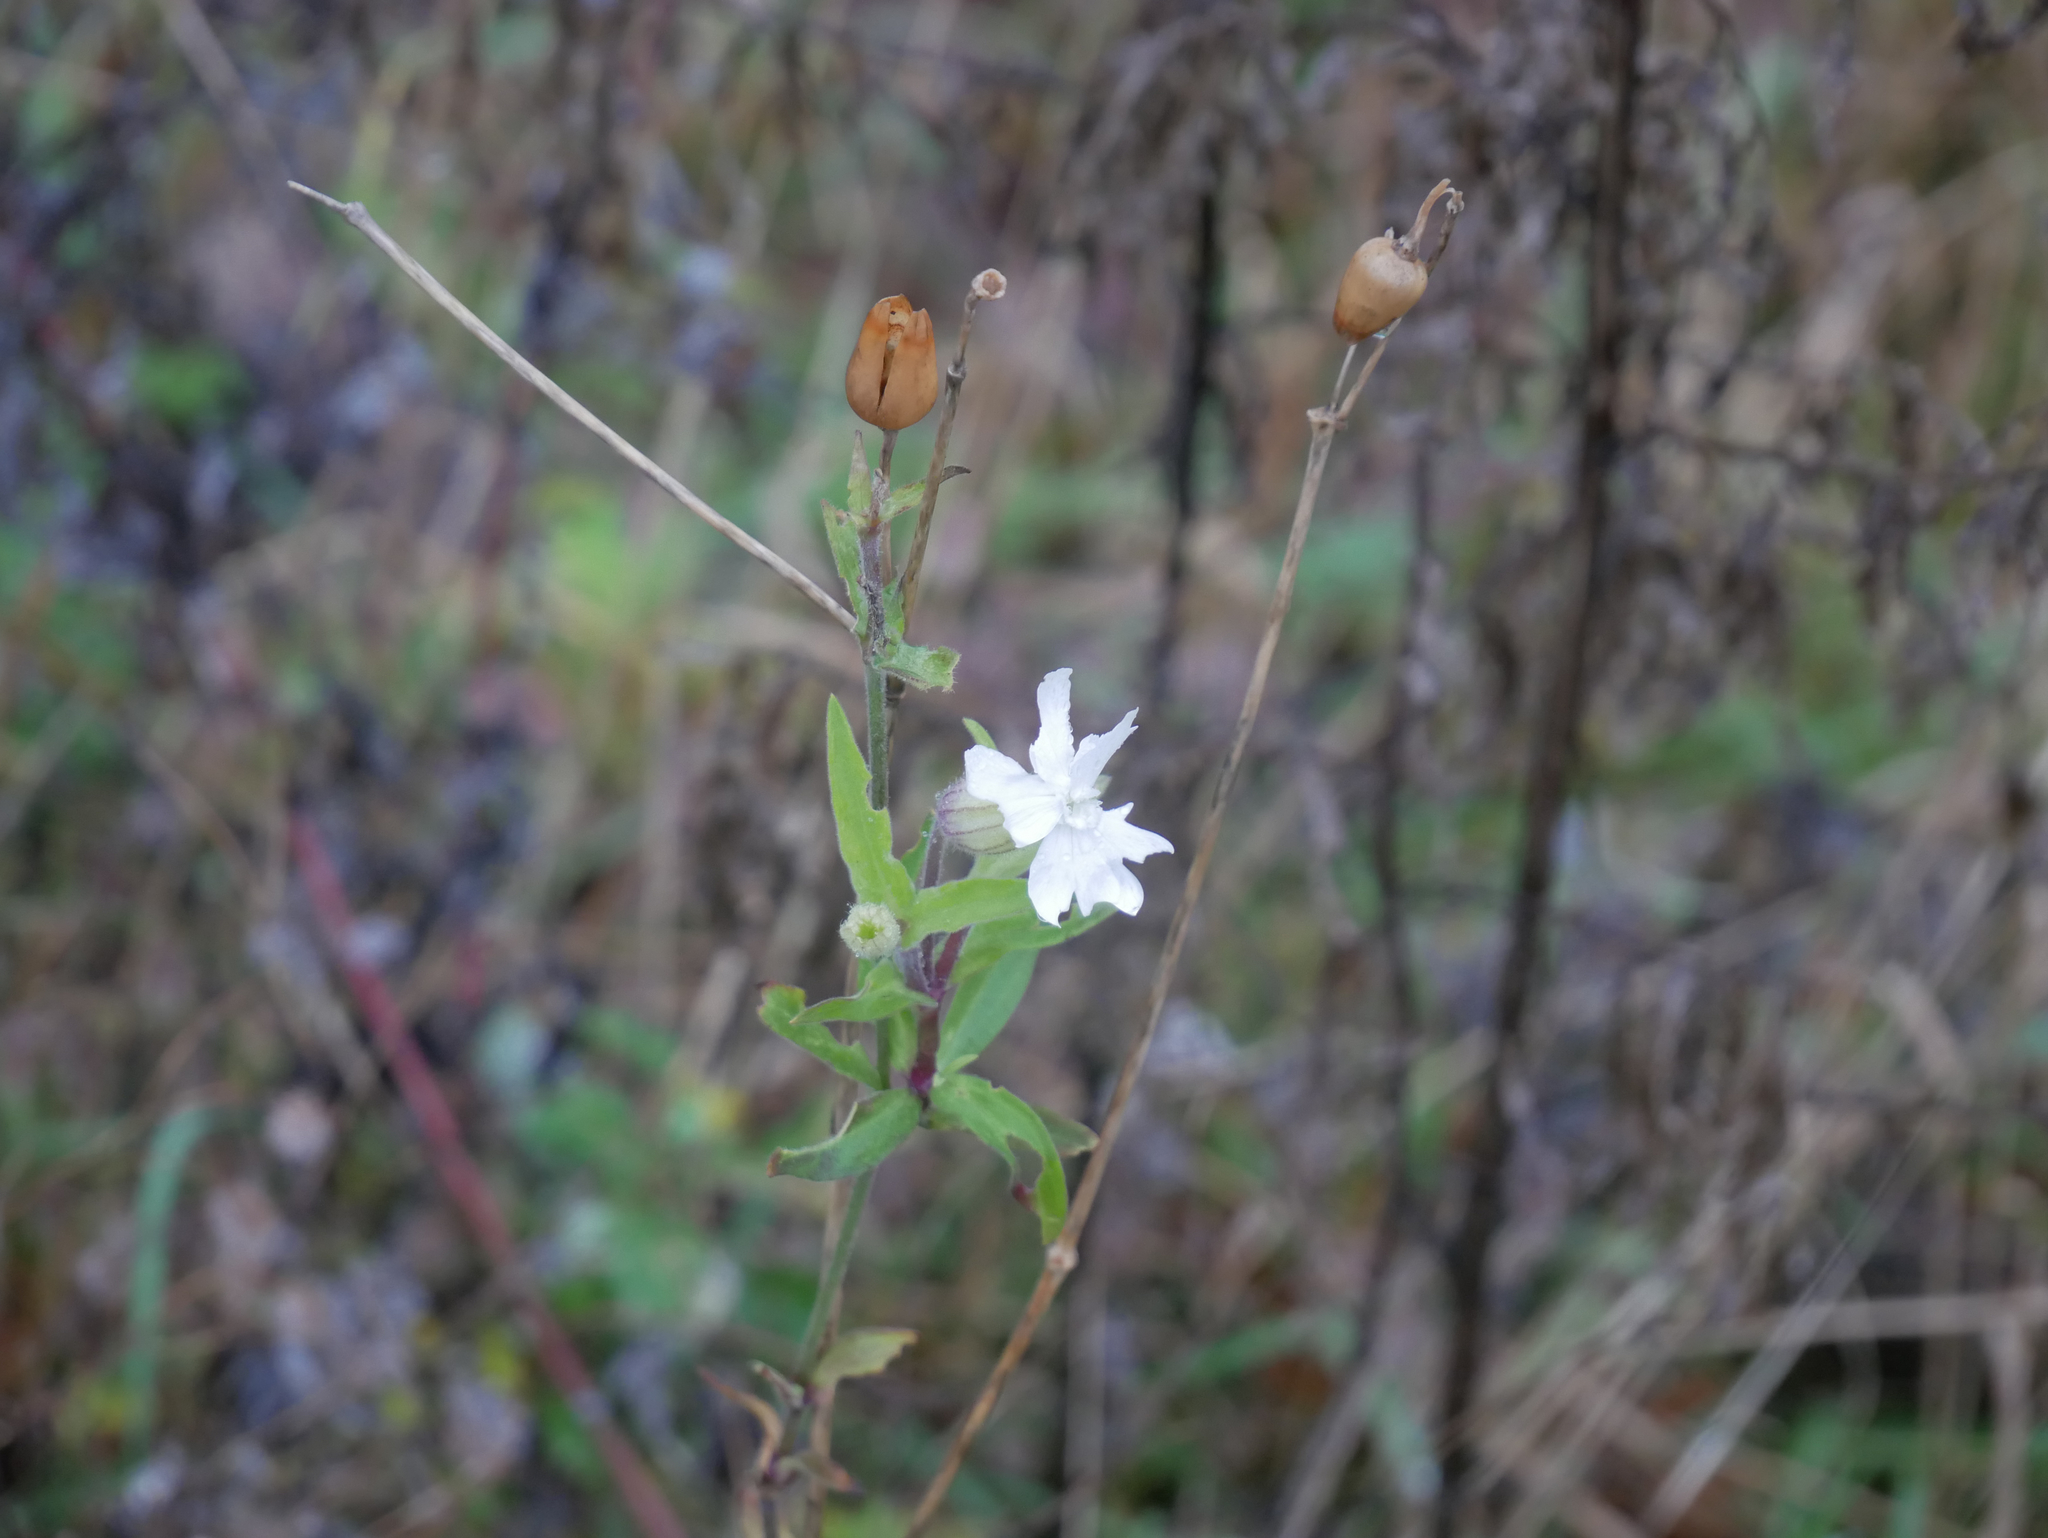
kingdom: Plantae
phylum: Tracheophyta
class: Magnoliopsida
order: Caryophyllales
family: Caryophyllaceae
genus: Silene
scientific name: Silene latifolia
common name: White campion
